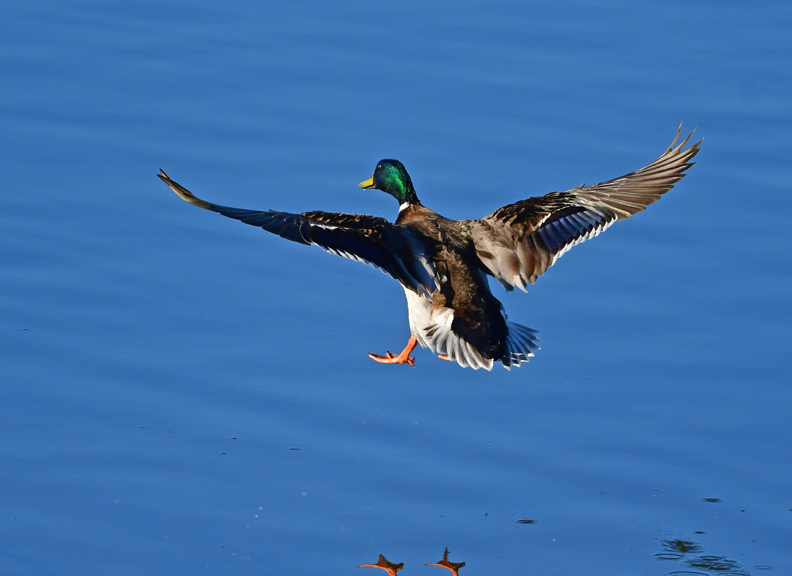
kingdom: Animalia
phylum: Chordata
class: Aves
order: Anseriformes
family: Anatidae
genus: Anas
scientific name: Anas platyrhynchos
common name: Mallard
